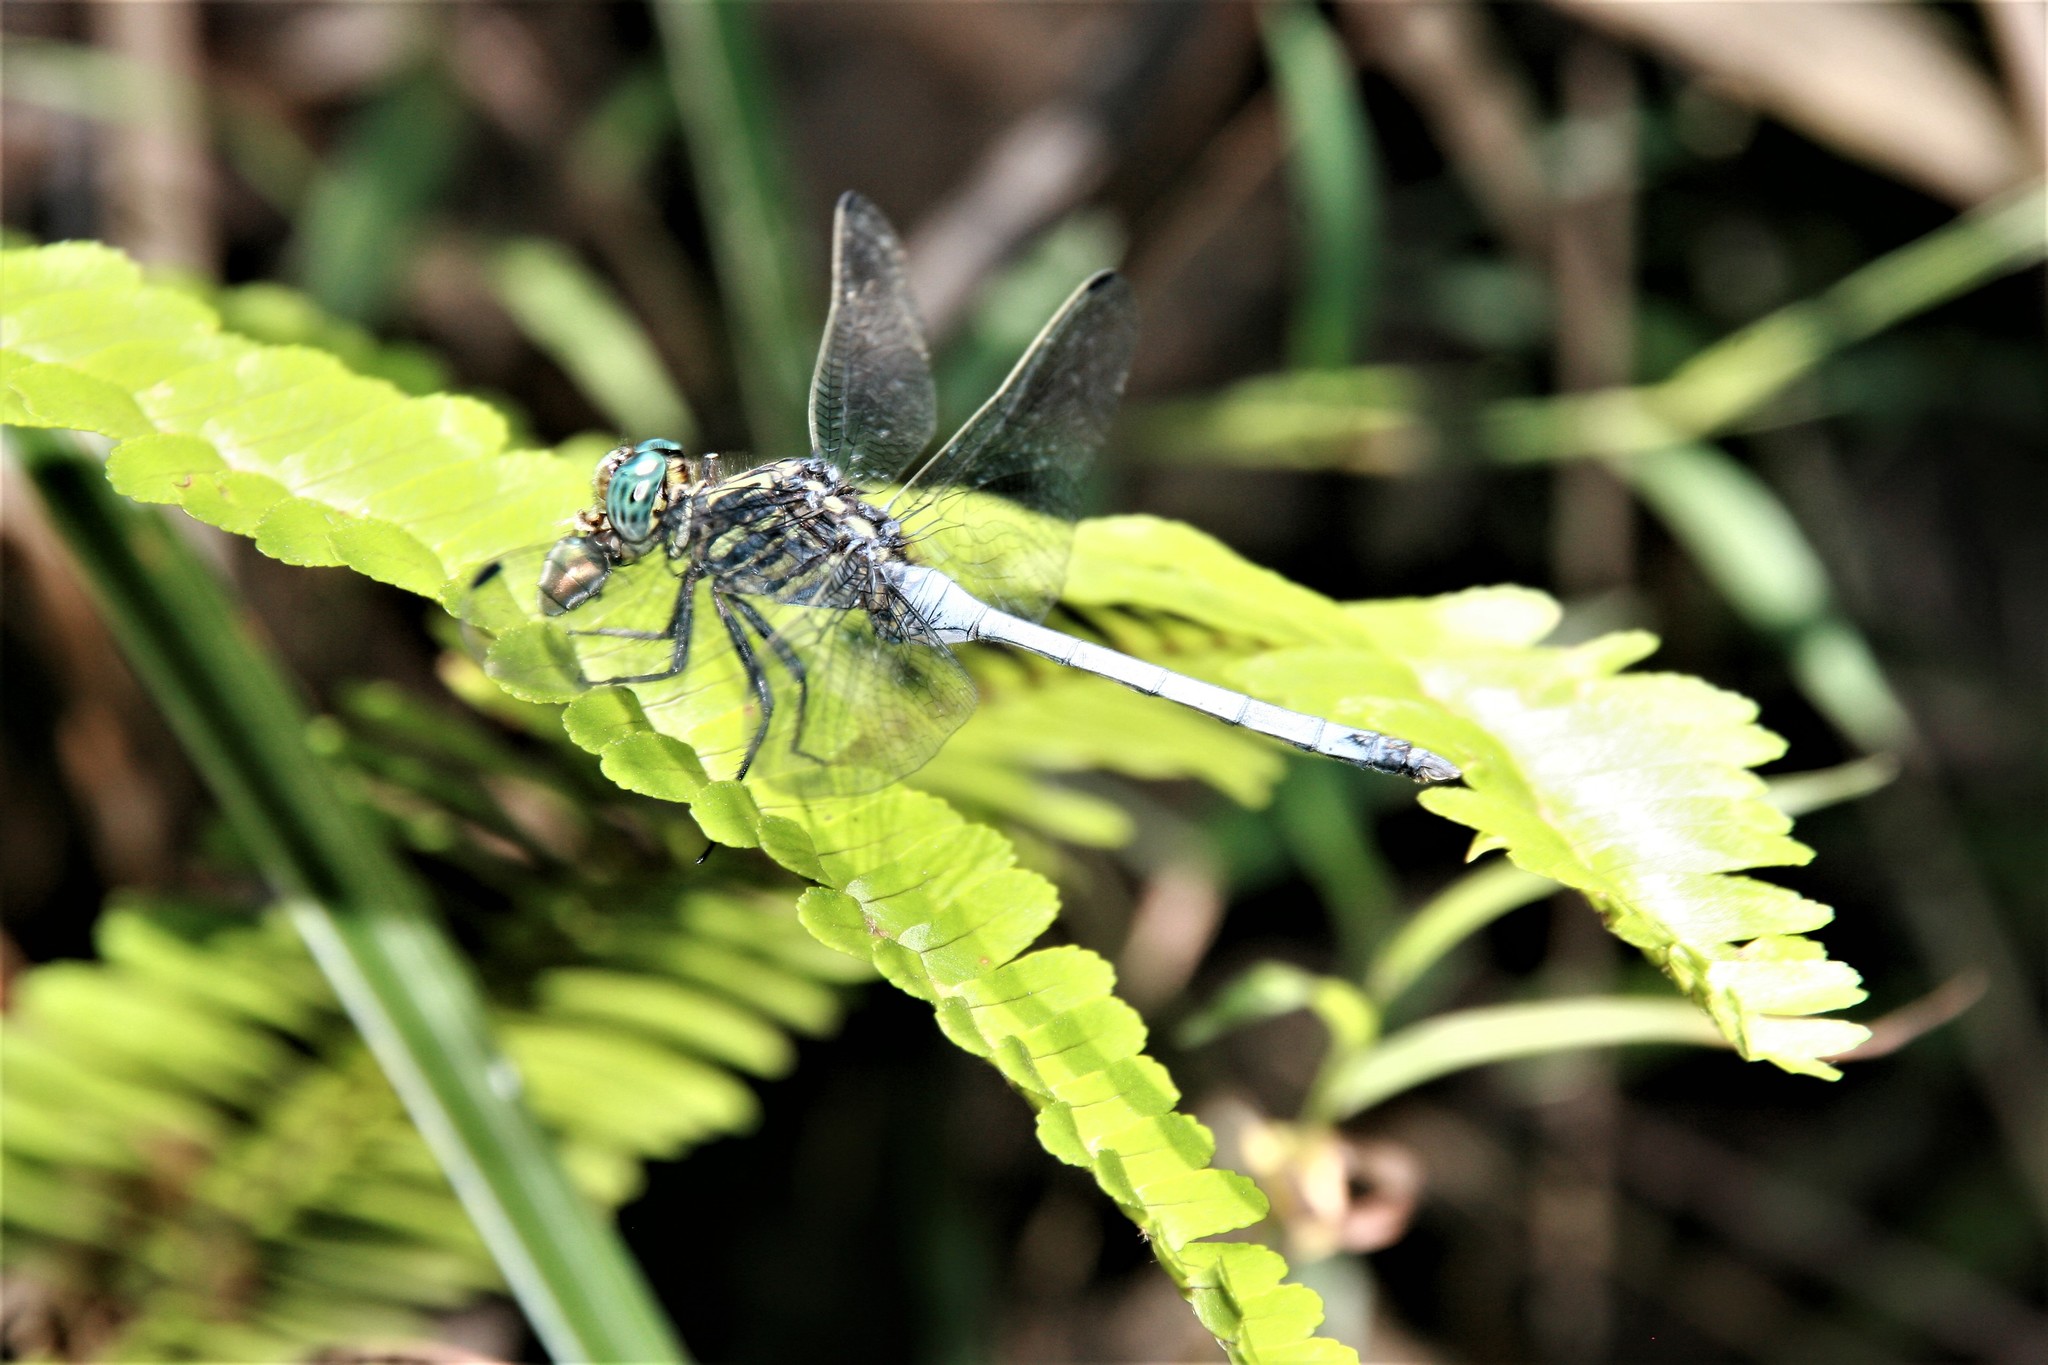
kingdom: Animalia
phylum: Arthropoda
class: Insecta
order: Odonata
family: Libellulidae
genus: Orthetrum
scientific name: Orthetrum julia
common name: Julia skimmer
